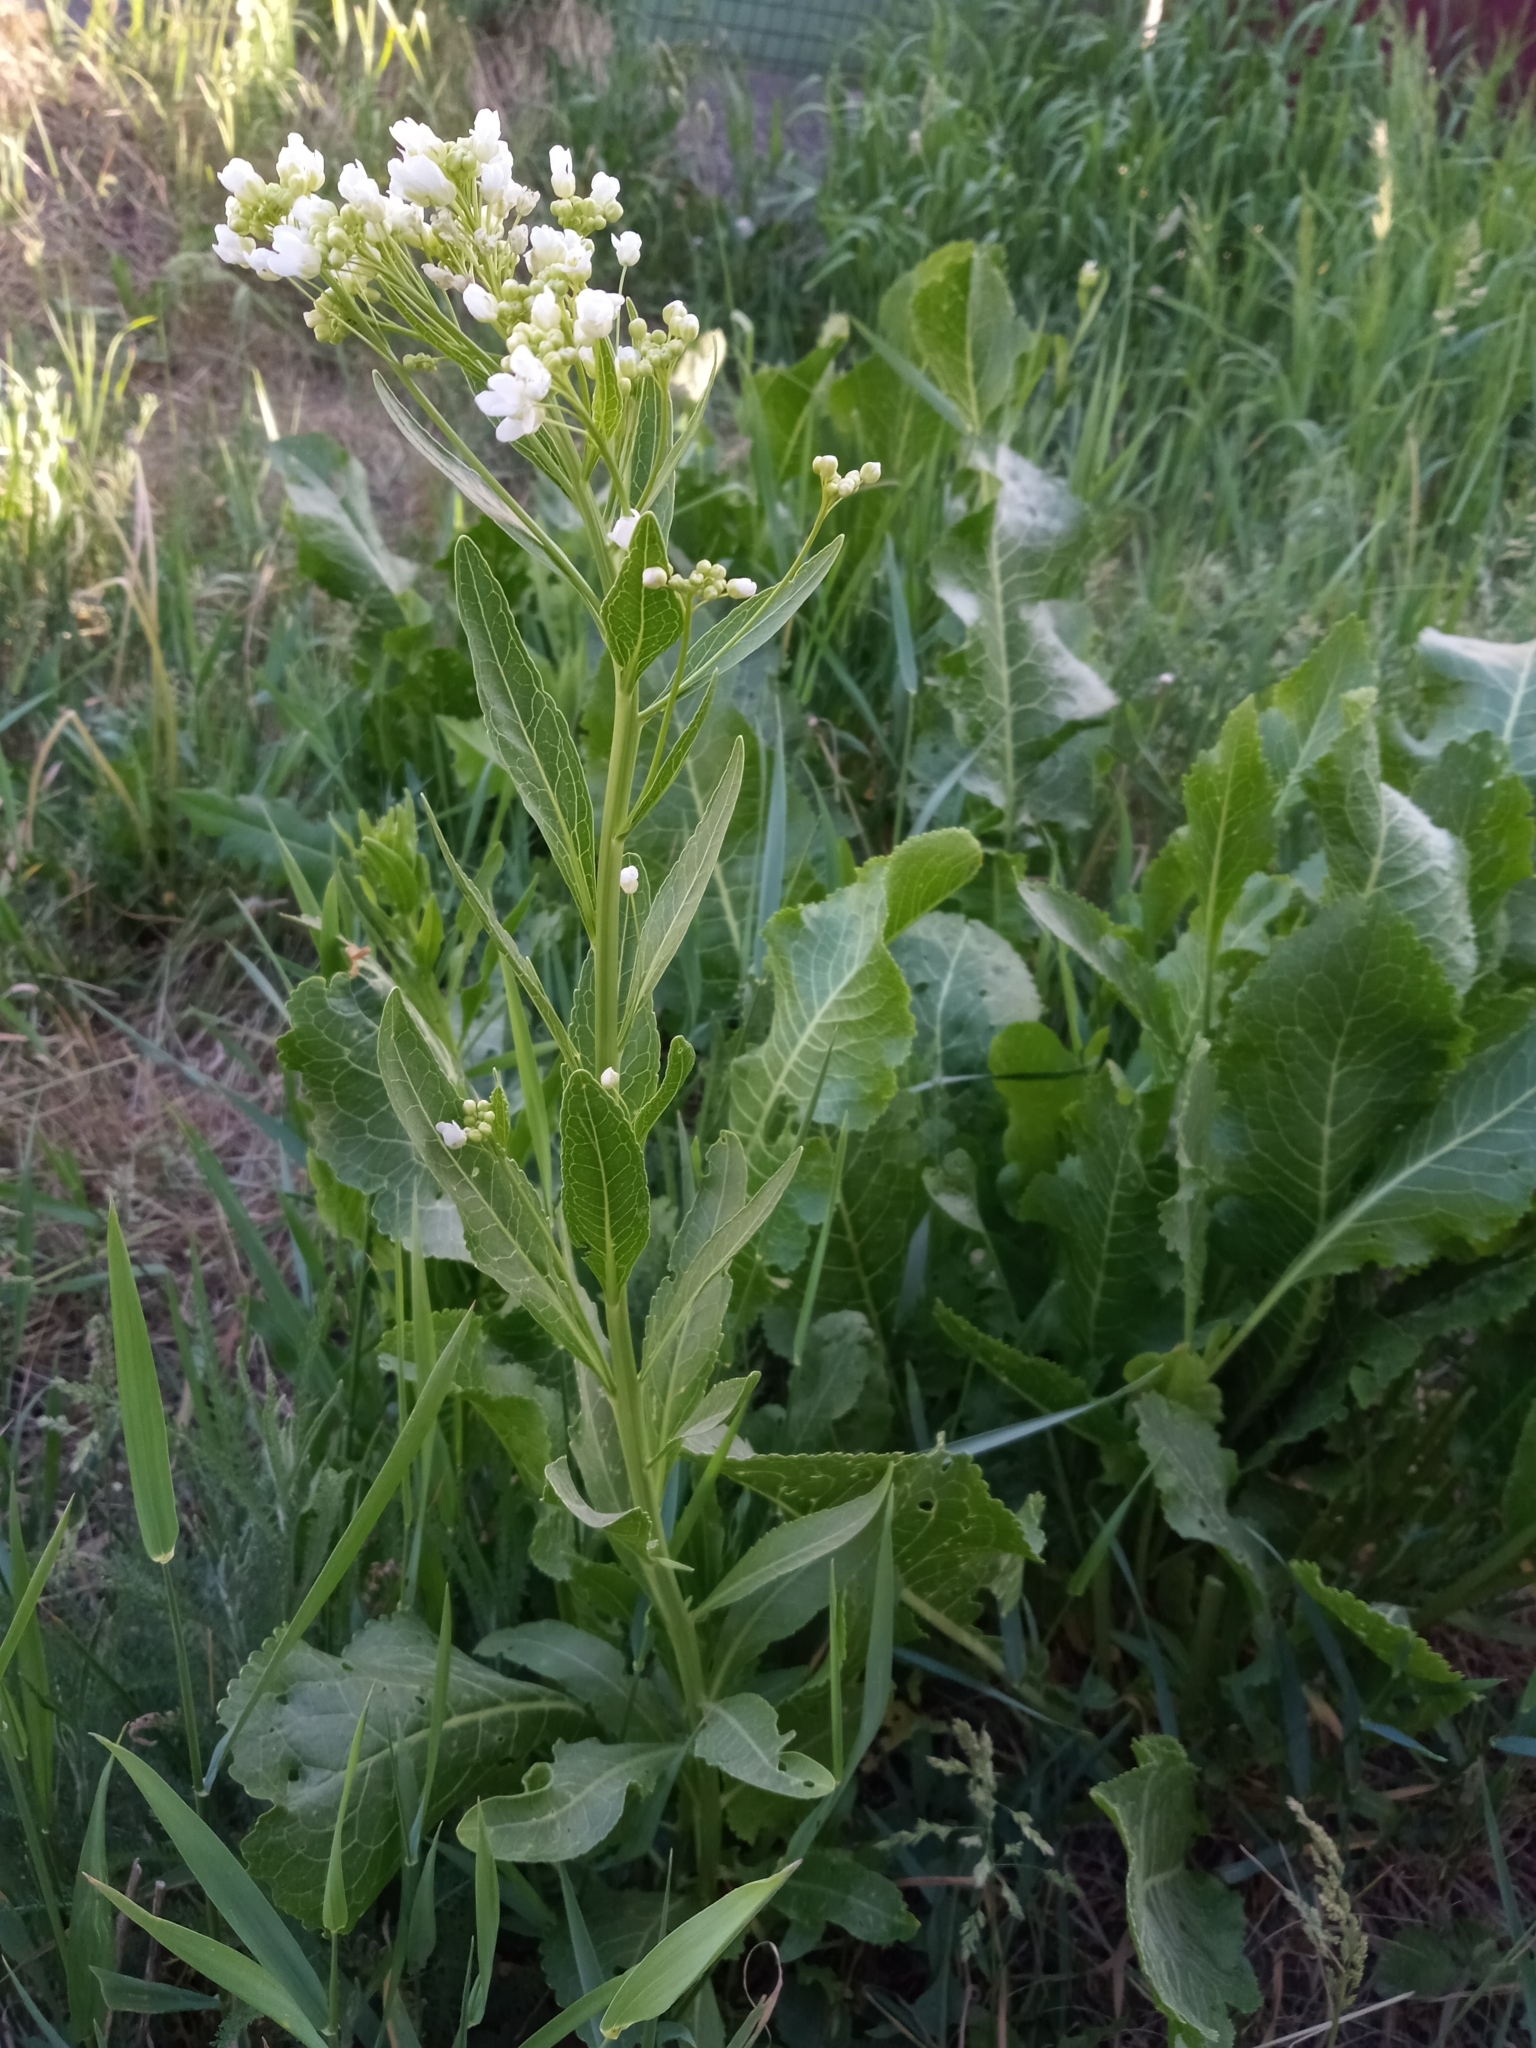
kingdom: Plantae
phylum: Tracheophyta
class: Magnoliopsida
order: Brassicales
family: Brassicaceae
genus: Armoracia
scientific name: Armoracia rusticana
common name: Horseradish
